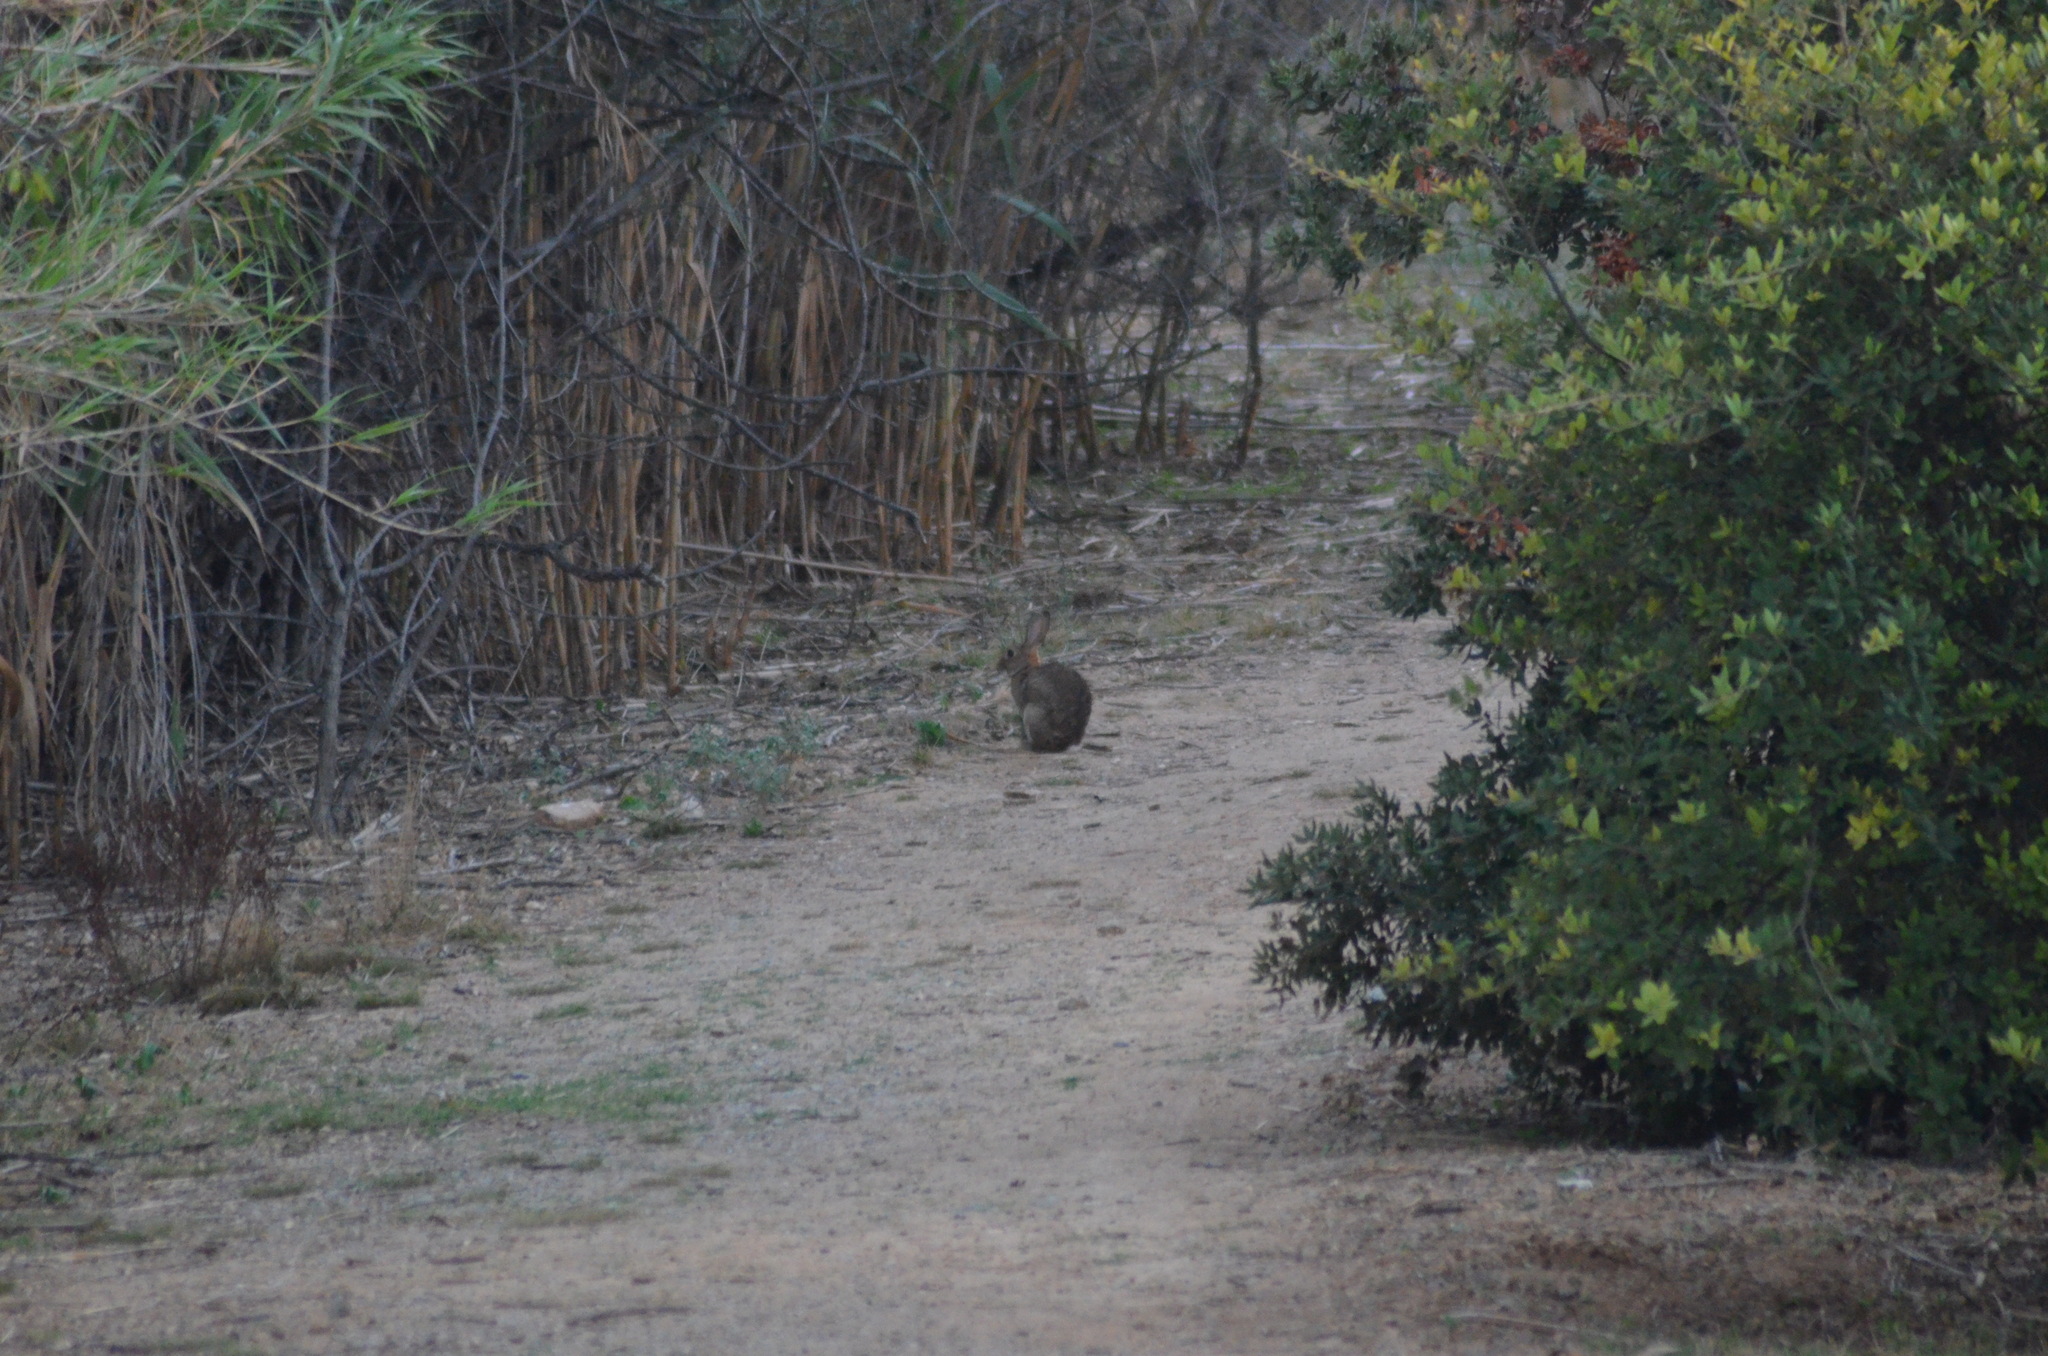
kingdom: Animalia
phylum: Chordata
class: Mammalia
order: Lagomorpha
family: Leporidae
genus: Oryctolagus
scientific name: Oryctolagus cuniculus
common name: European rabbit
